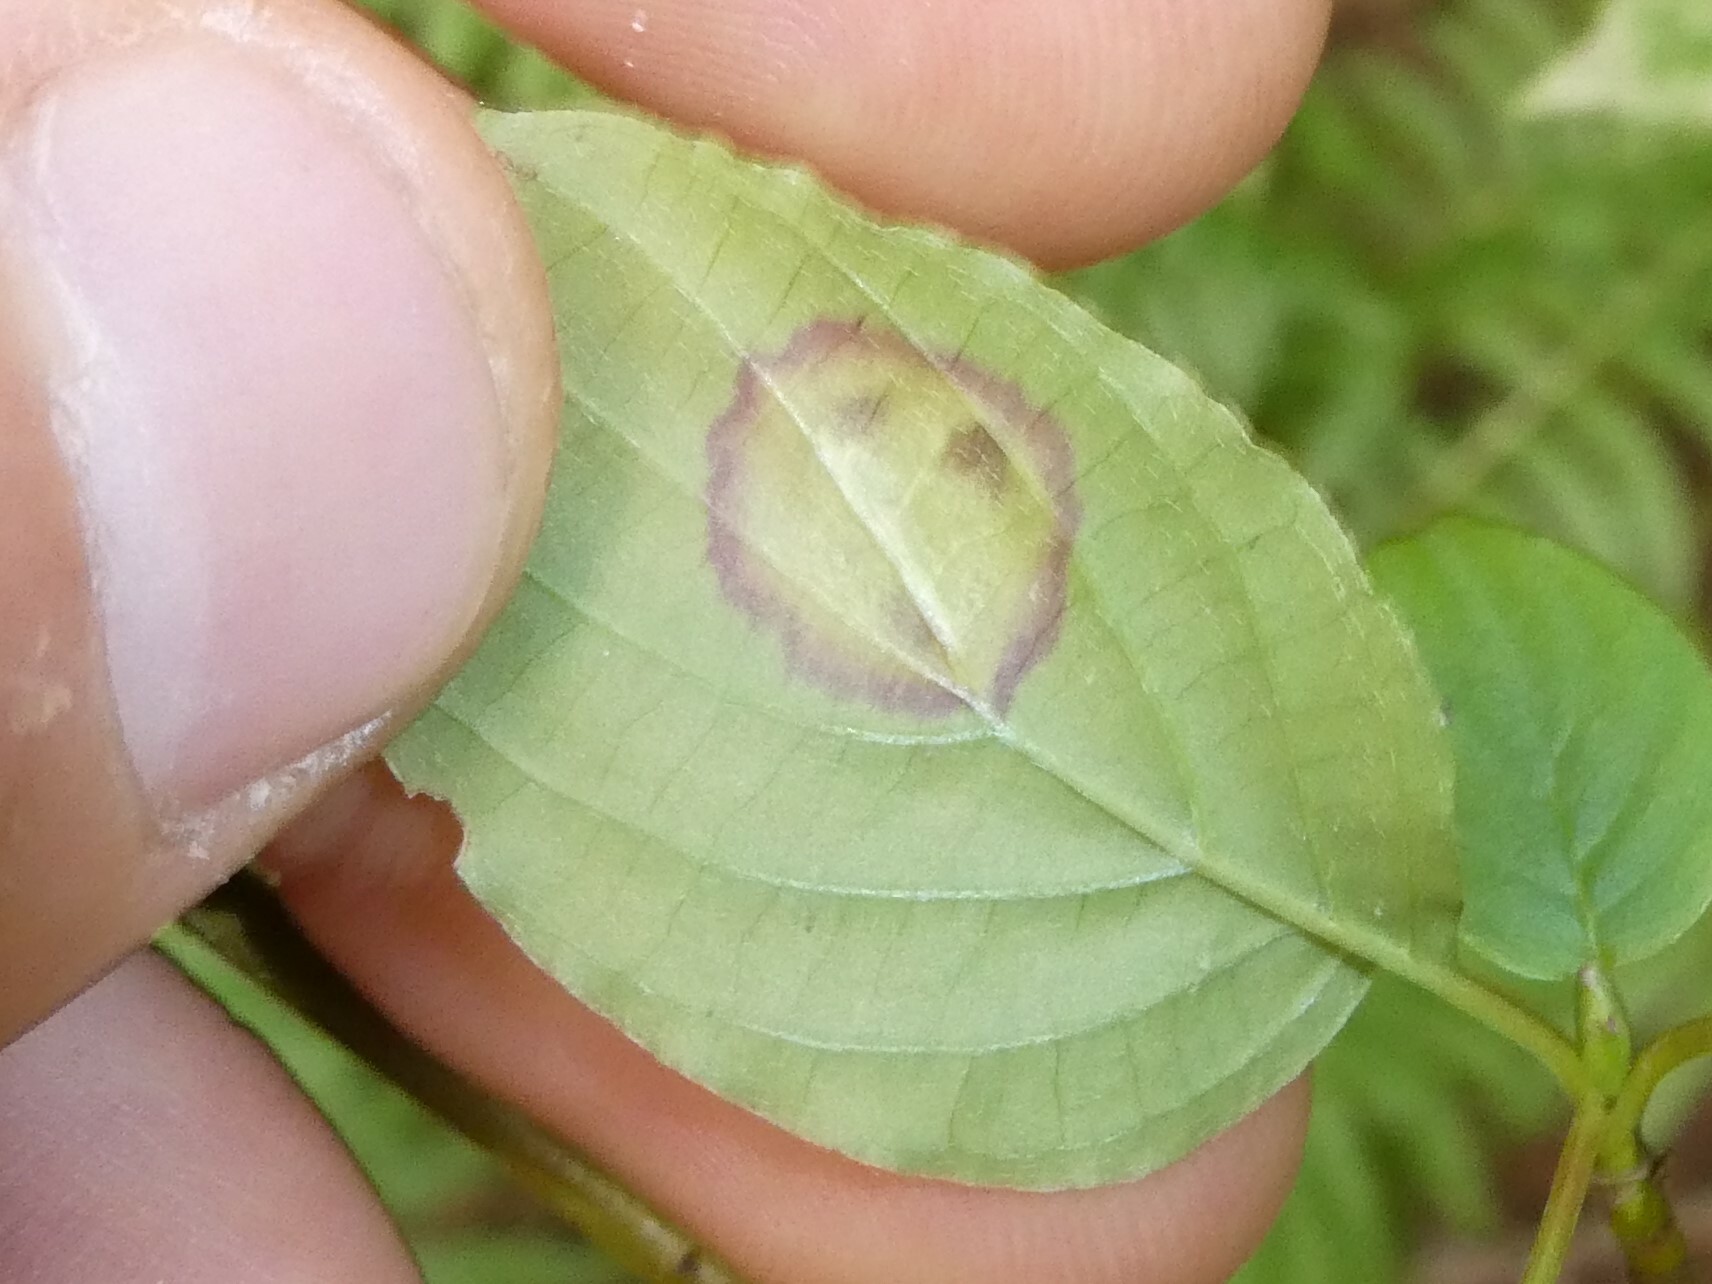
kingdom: Animalia
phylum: Arthropoda
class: Insecta
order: Diptera
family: Cecidomyiidae
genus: Parallelodiplosis
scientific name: Parallelodiplosis subtruncata
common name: Dogwood eyespot gall midge
